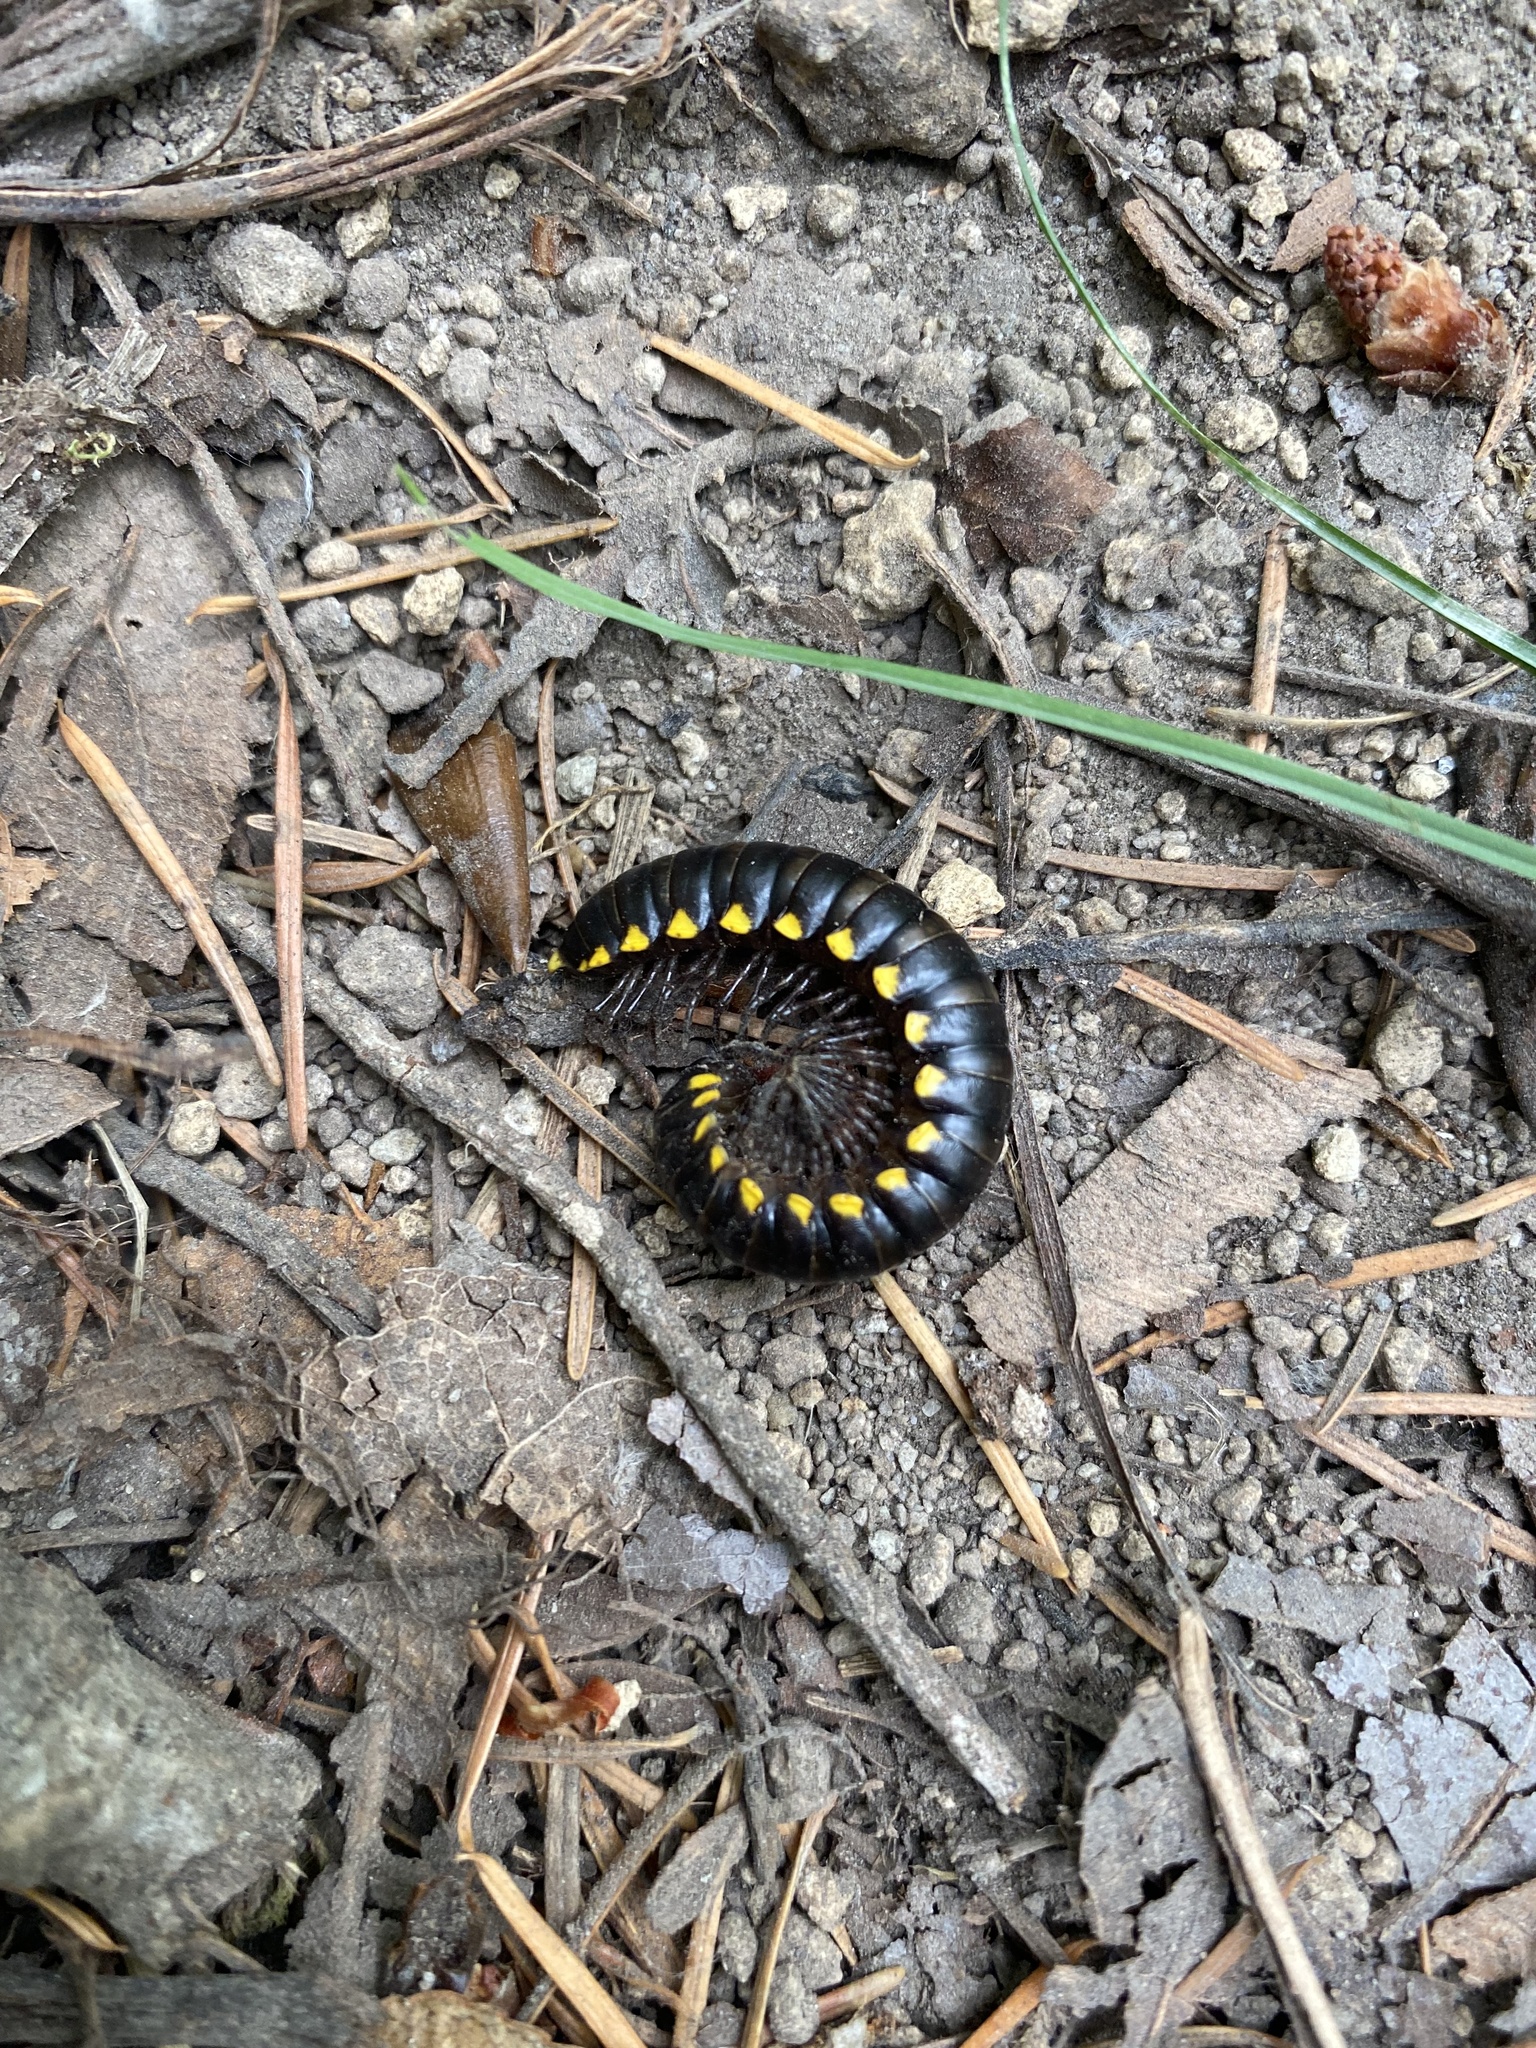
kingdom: Animalia
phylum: Arthropoda
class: Diplopoda
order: Polydesmida
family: Xystodesmidae
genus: Harpaphe
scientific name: Harpaphe haydeniana
